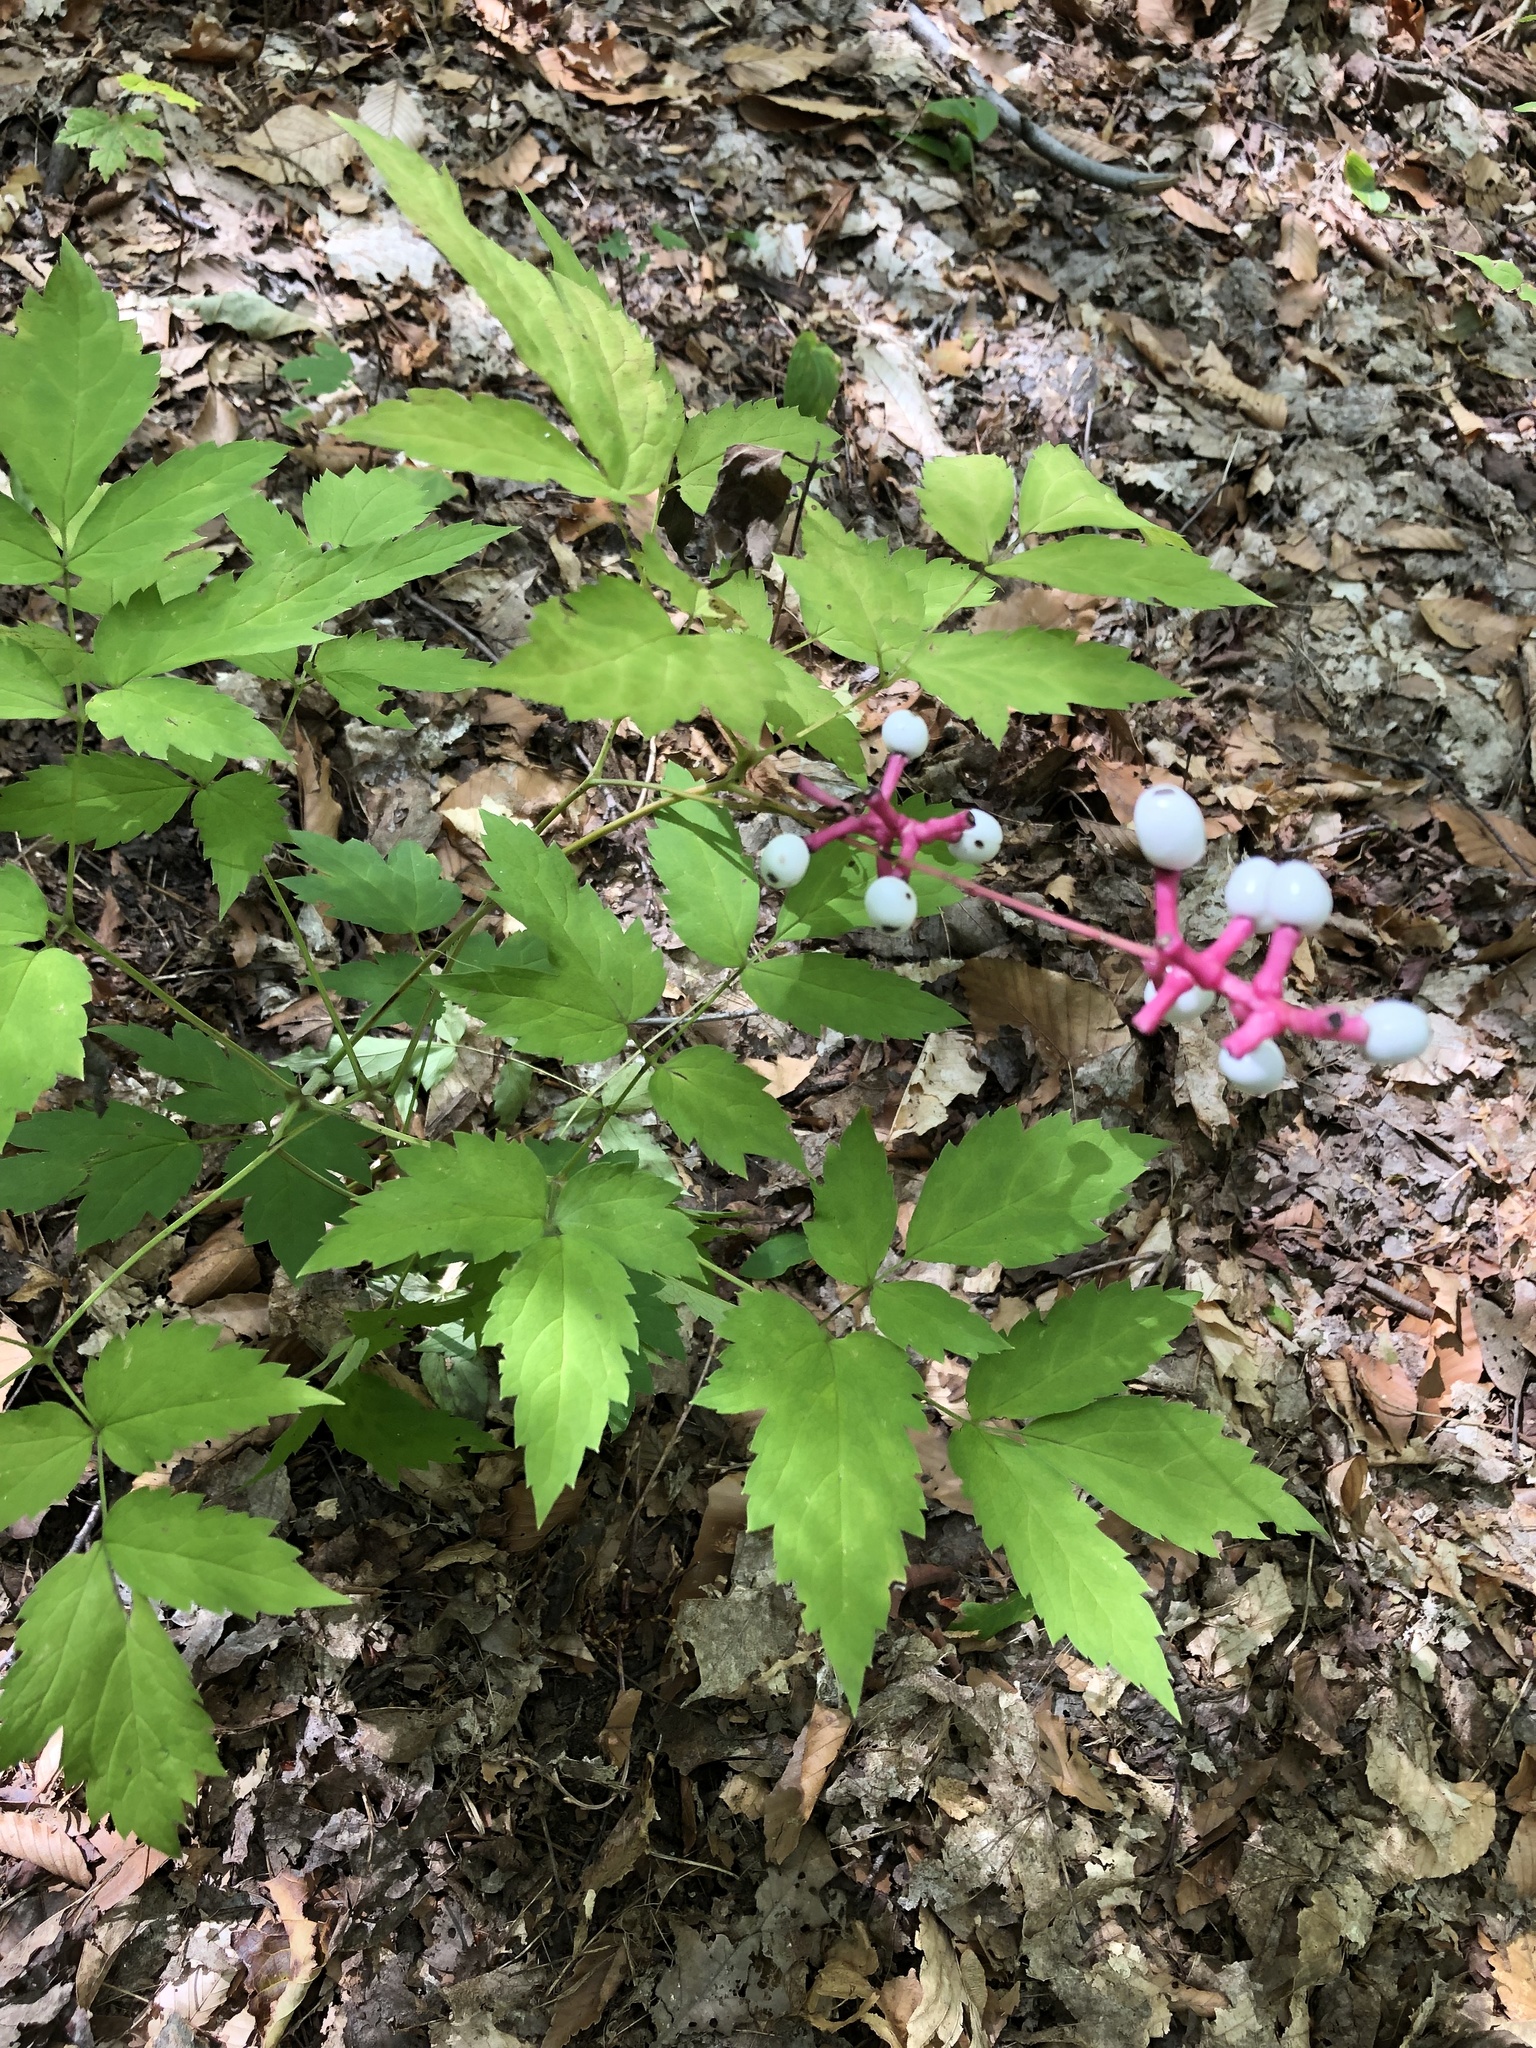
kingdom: Plantae
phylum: Tracheophyta
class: Magnoliopsida
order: Ranunculales
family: Ranunculaceae
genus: Actaea
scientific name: Actaea pachypoda
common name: Doll's-eyes
